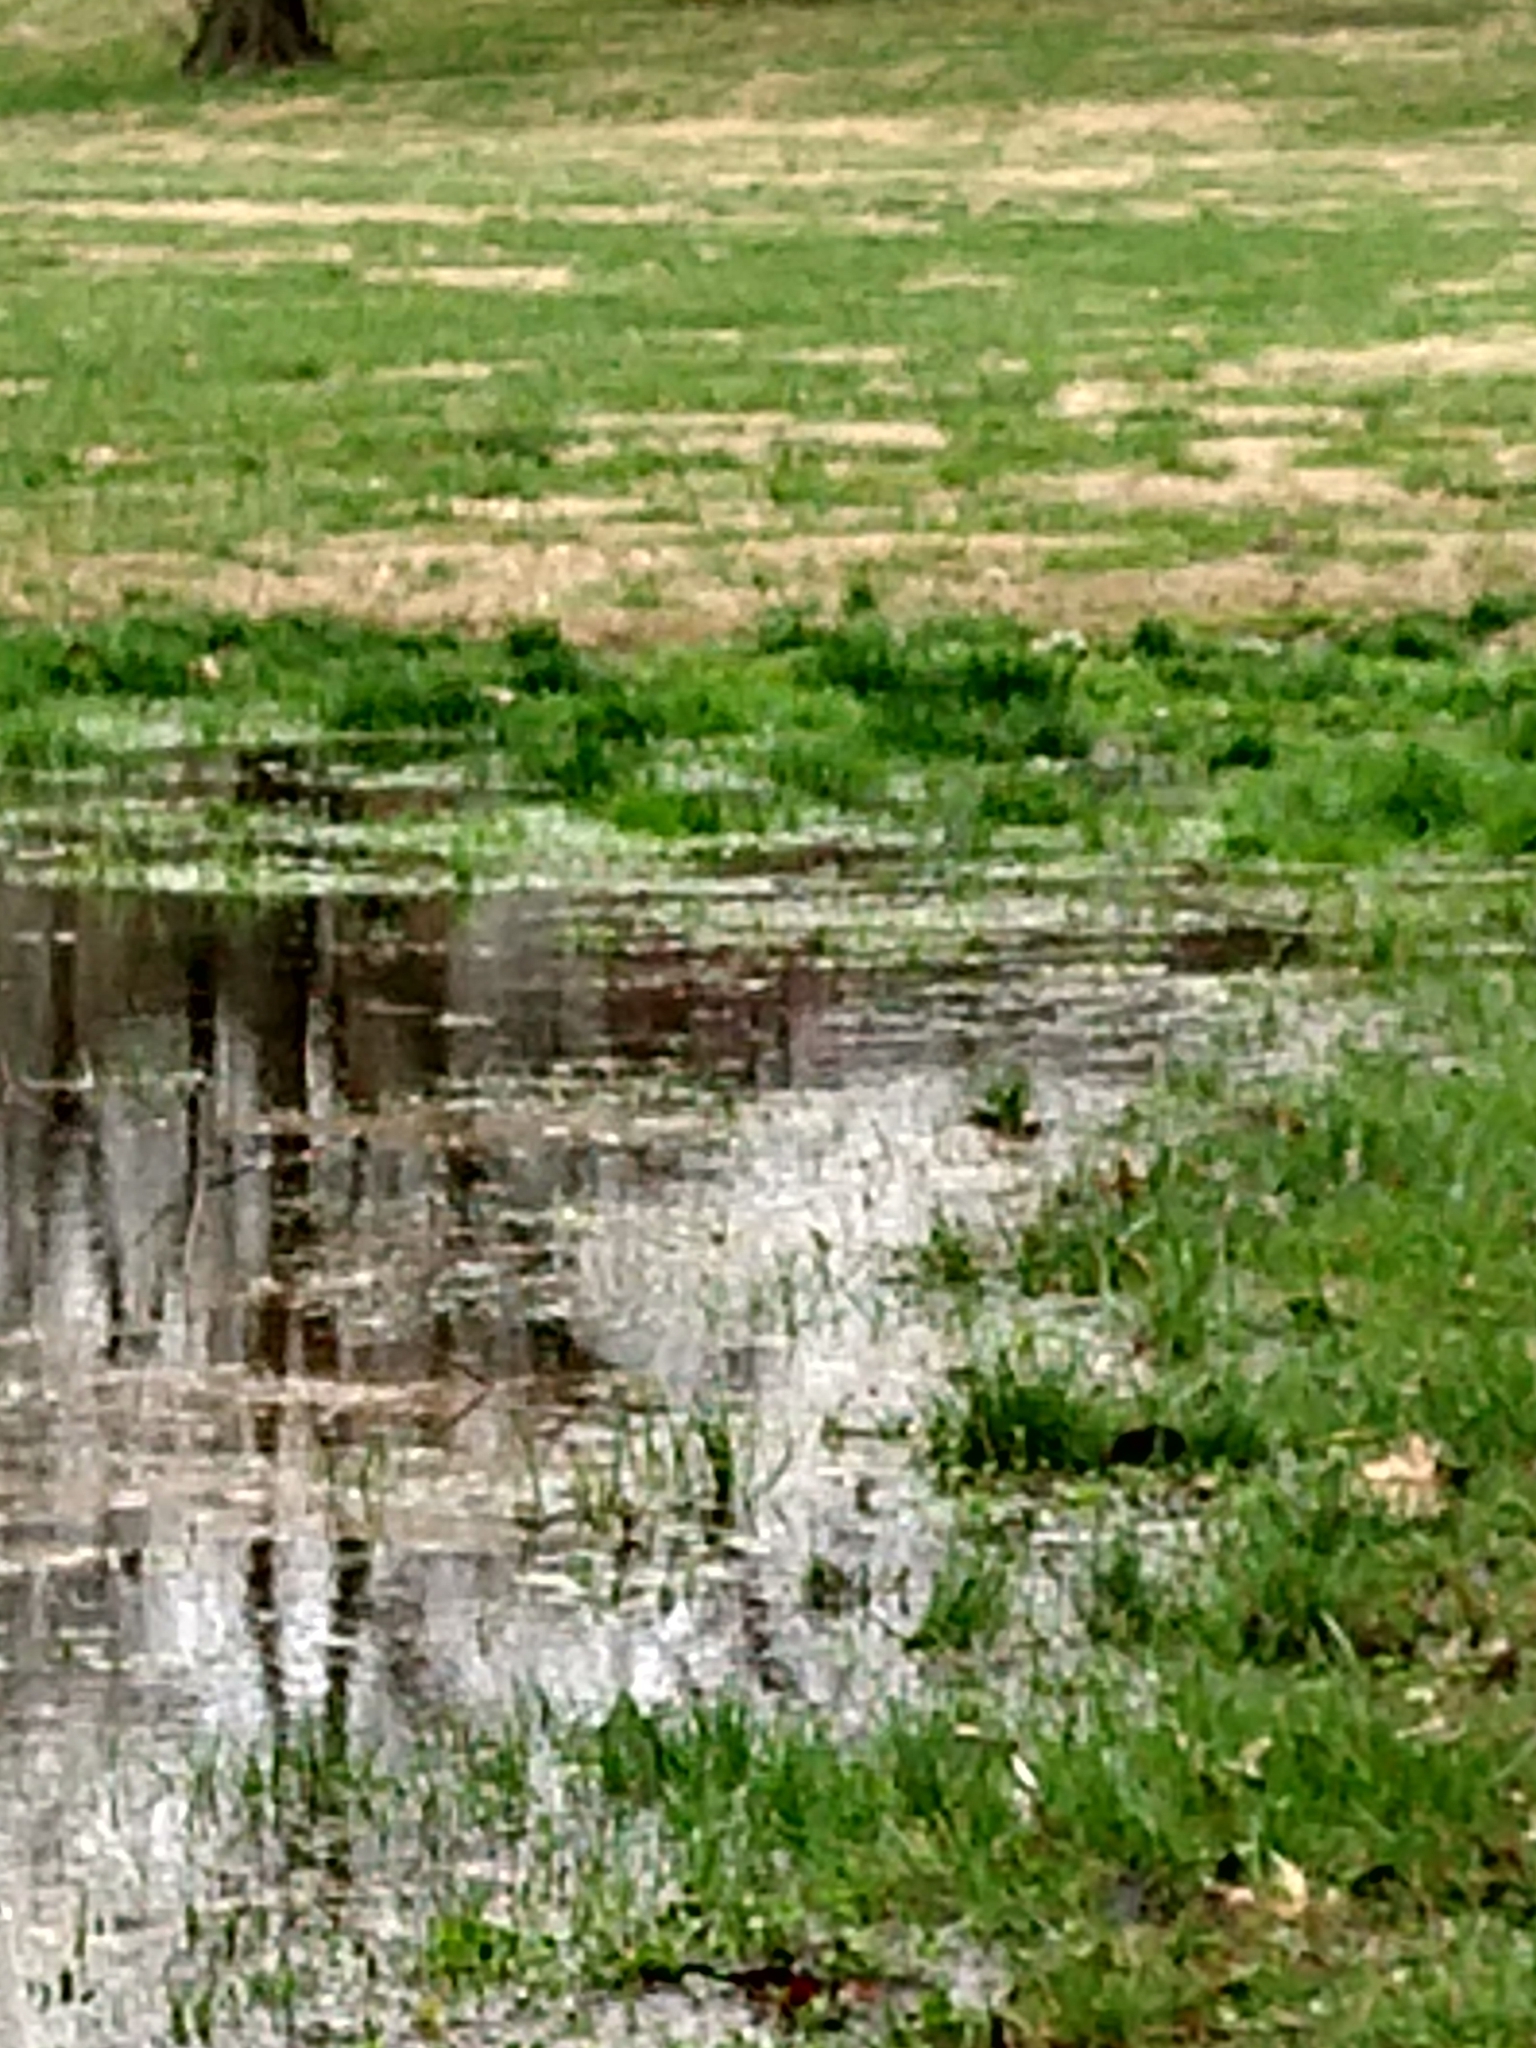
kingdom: Animalia
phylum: Chordata
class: Amphibia
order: Anura
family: Bufonidae
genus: Anaxyrus
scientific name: Anaxyrus americanus
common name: American toad
